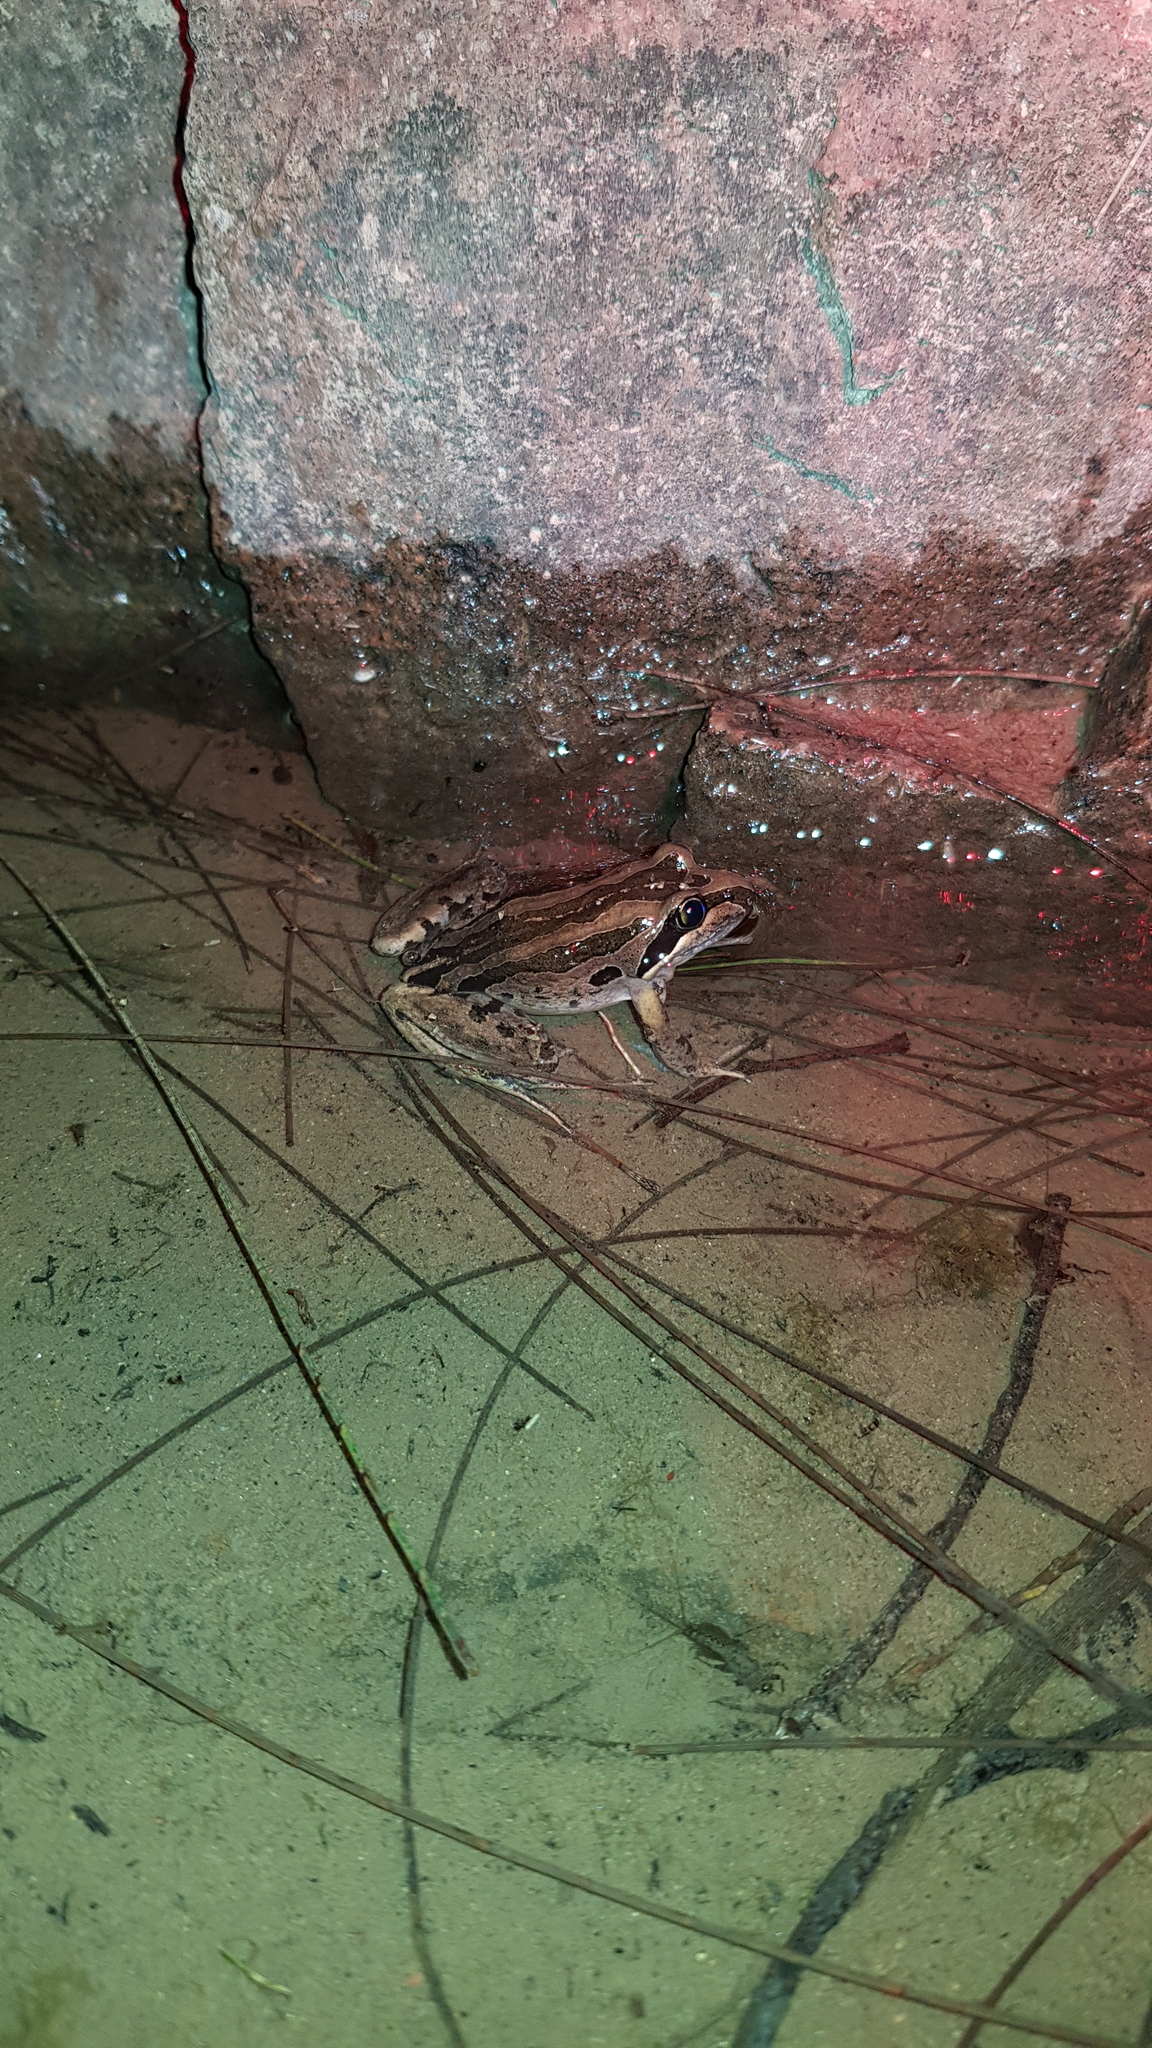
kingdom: Animalia
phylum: Chordata
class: Amphibia
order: Anura
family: Limnodynastidae
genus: Limnodynastes
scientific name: Limnodynastes peronii
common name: Brown frog
